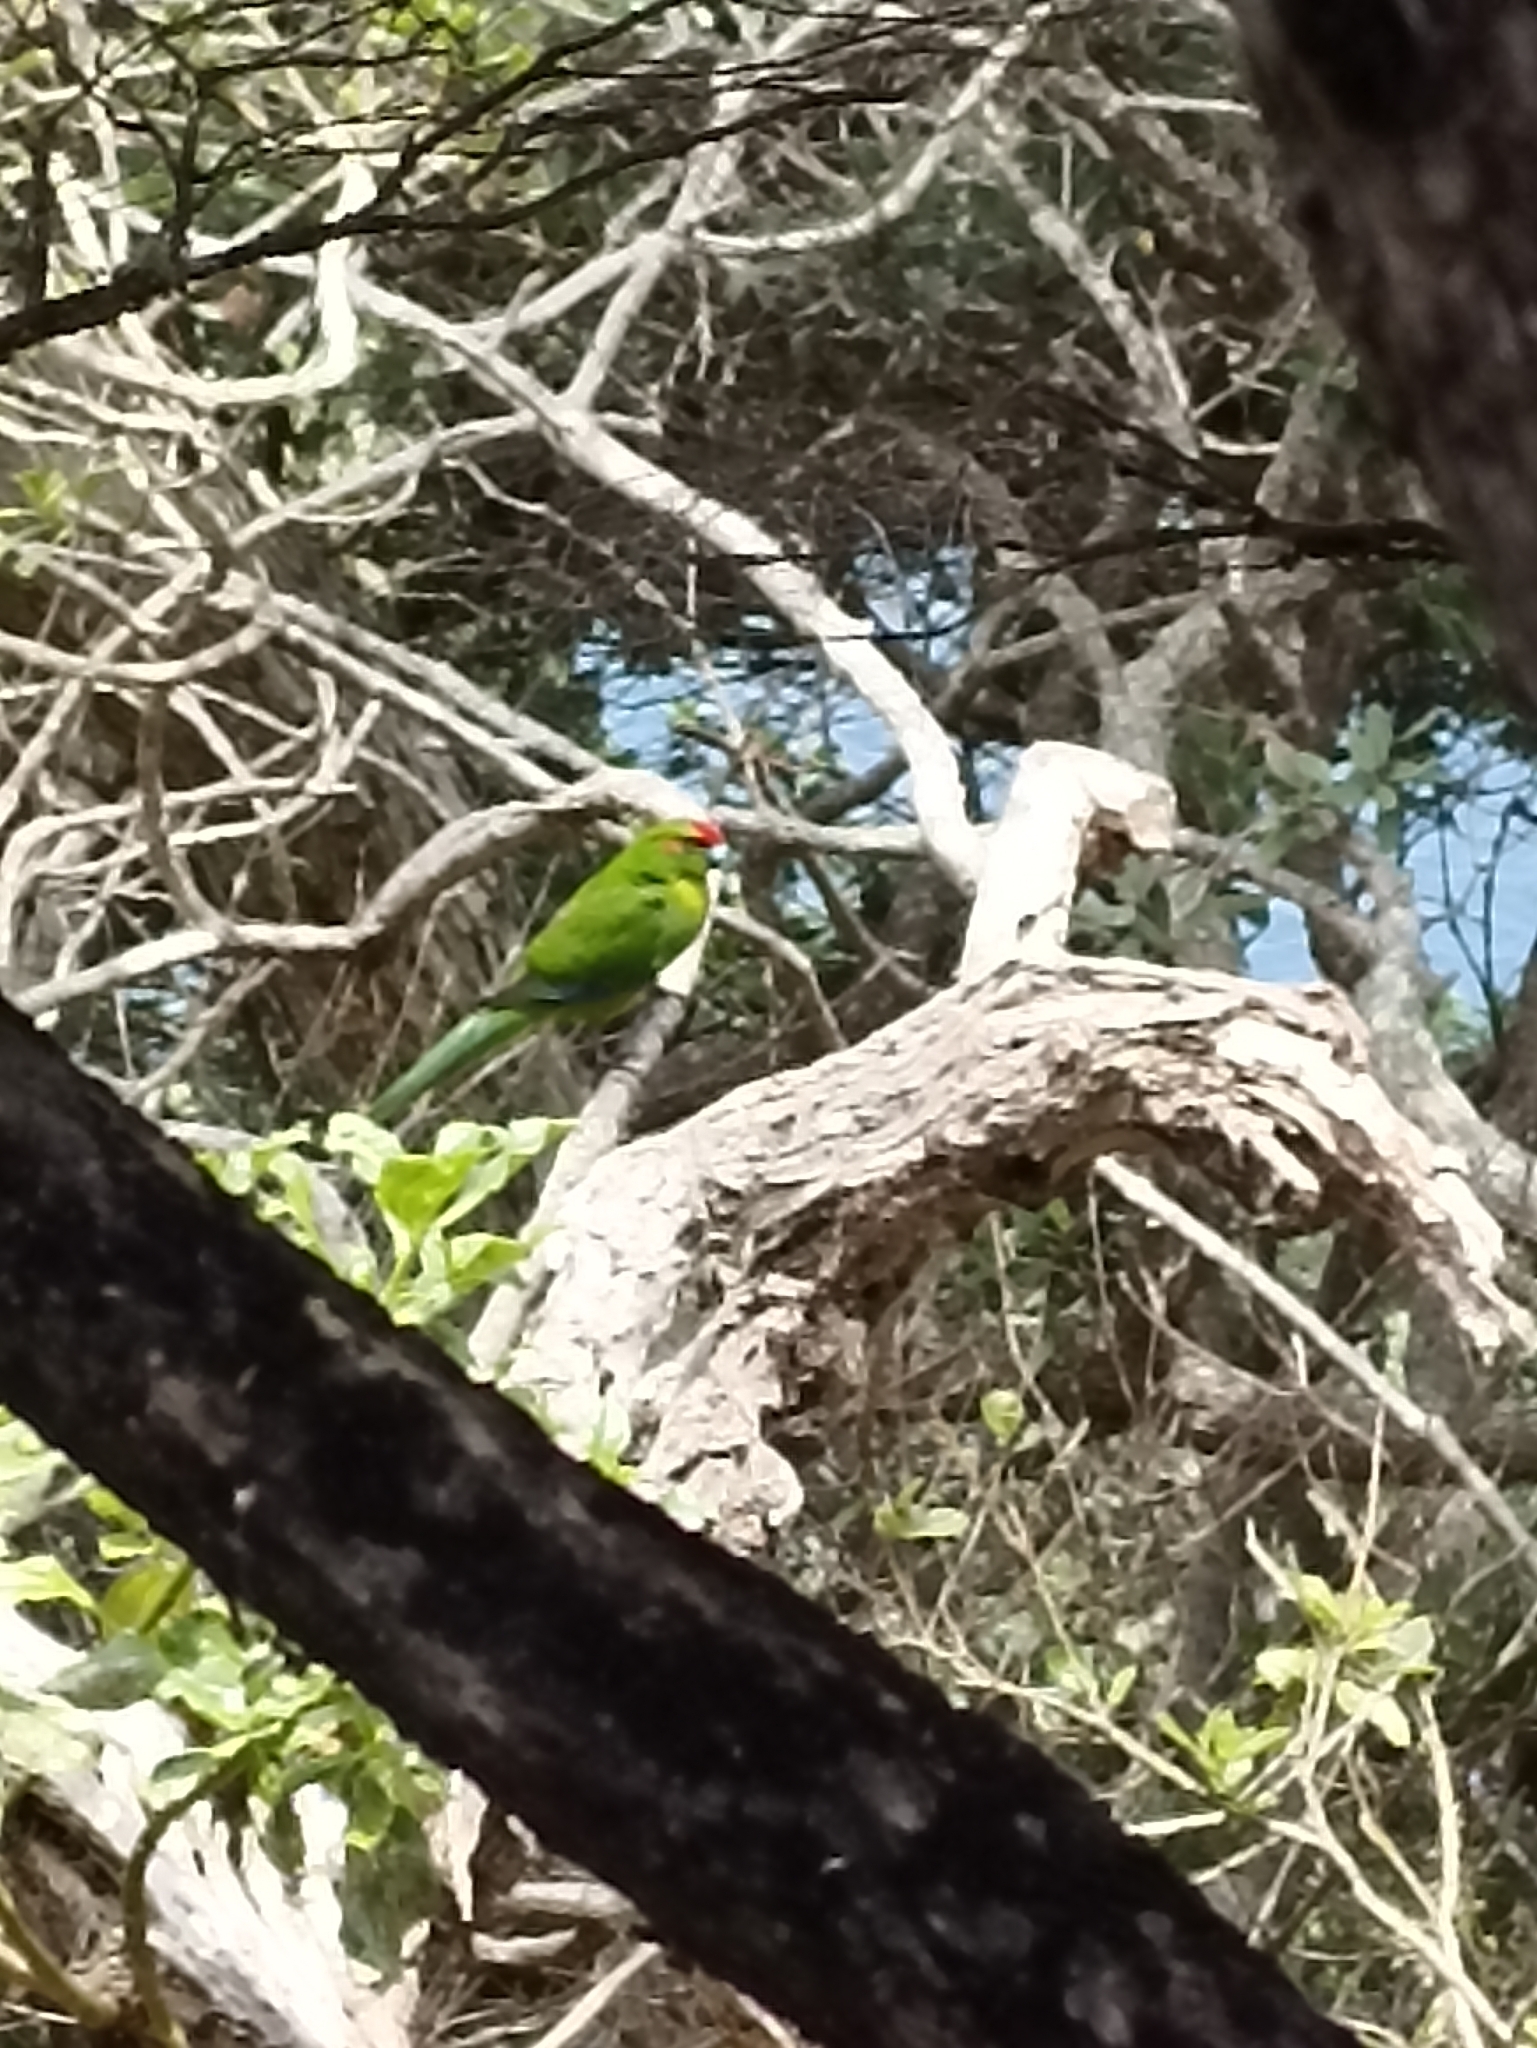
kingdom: Animalia
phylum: Chordata
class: Aves
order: Psittaciformes
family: Psittacidae
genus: Cyanoramphus
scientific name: Cyanoramphus novaezelandiae
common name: Red-fronted parakeet
